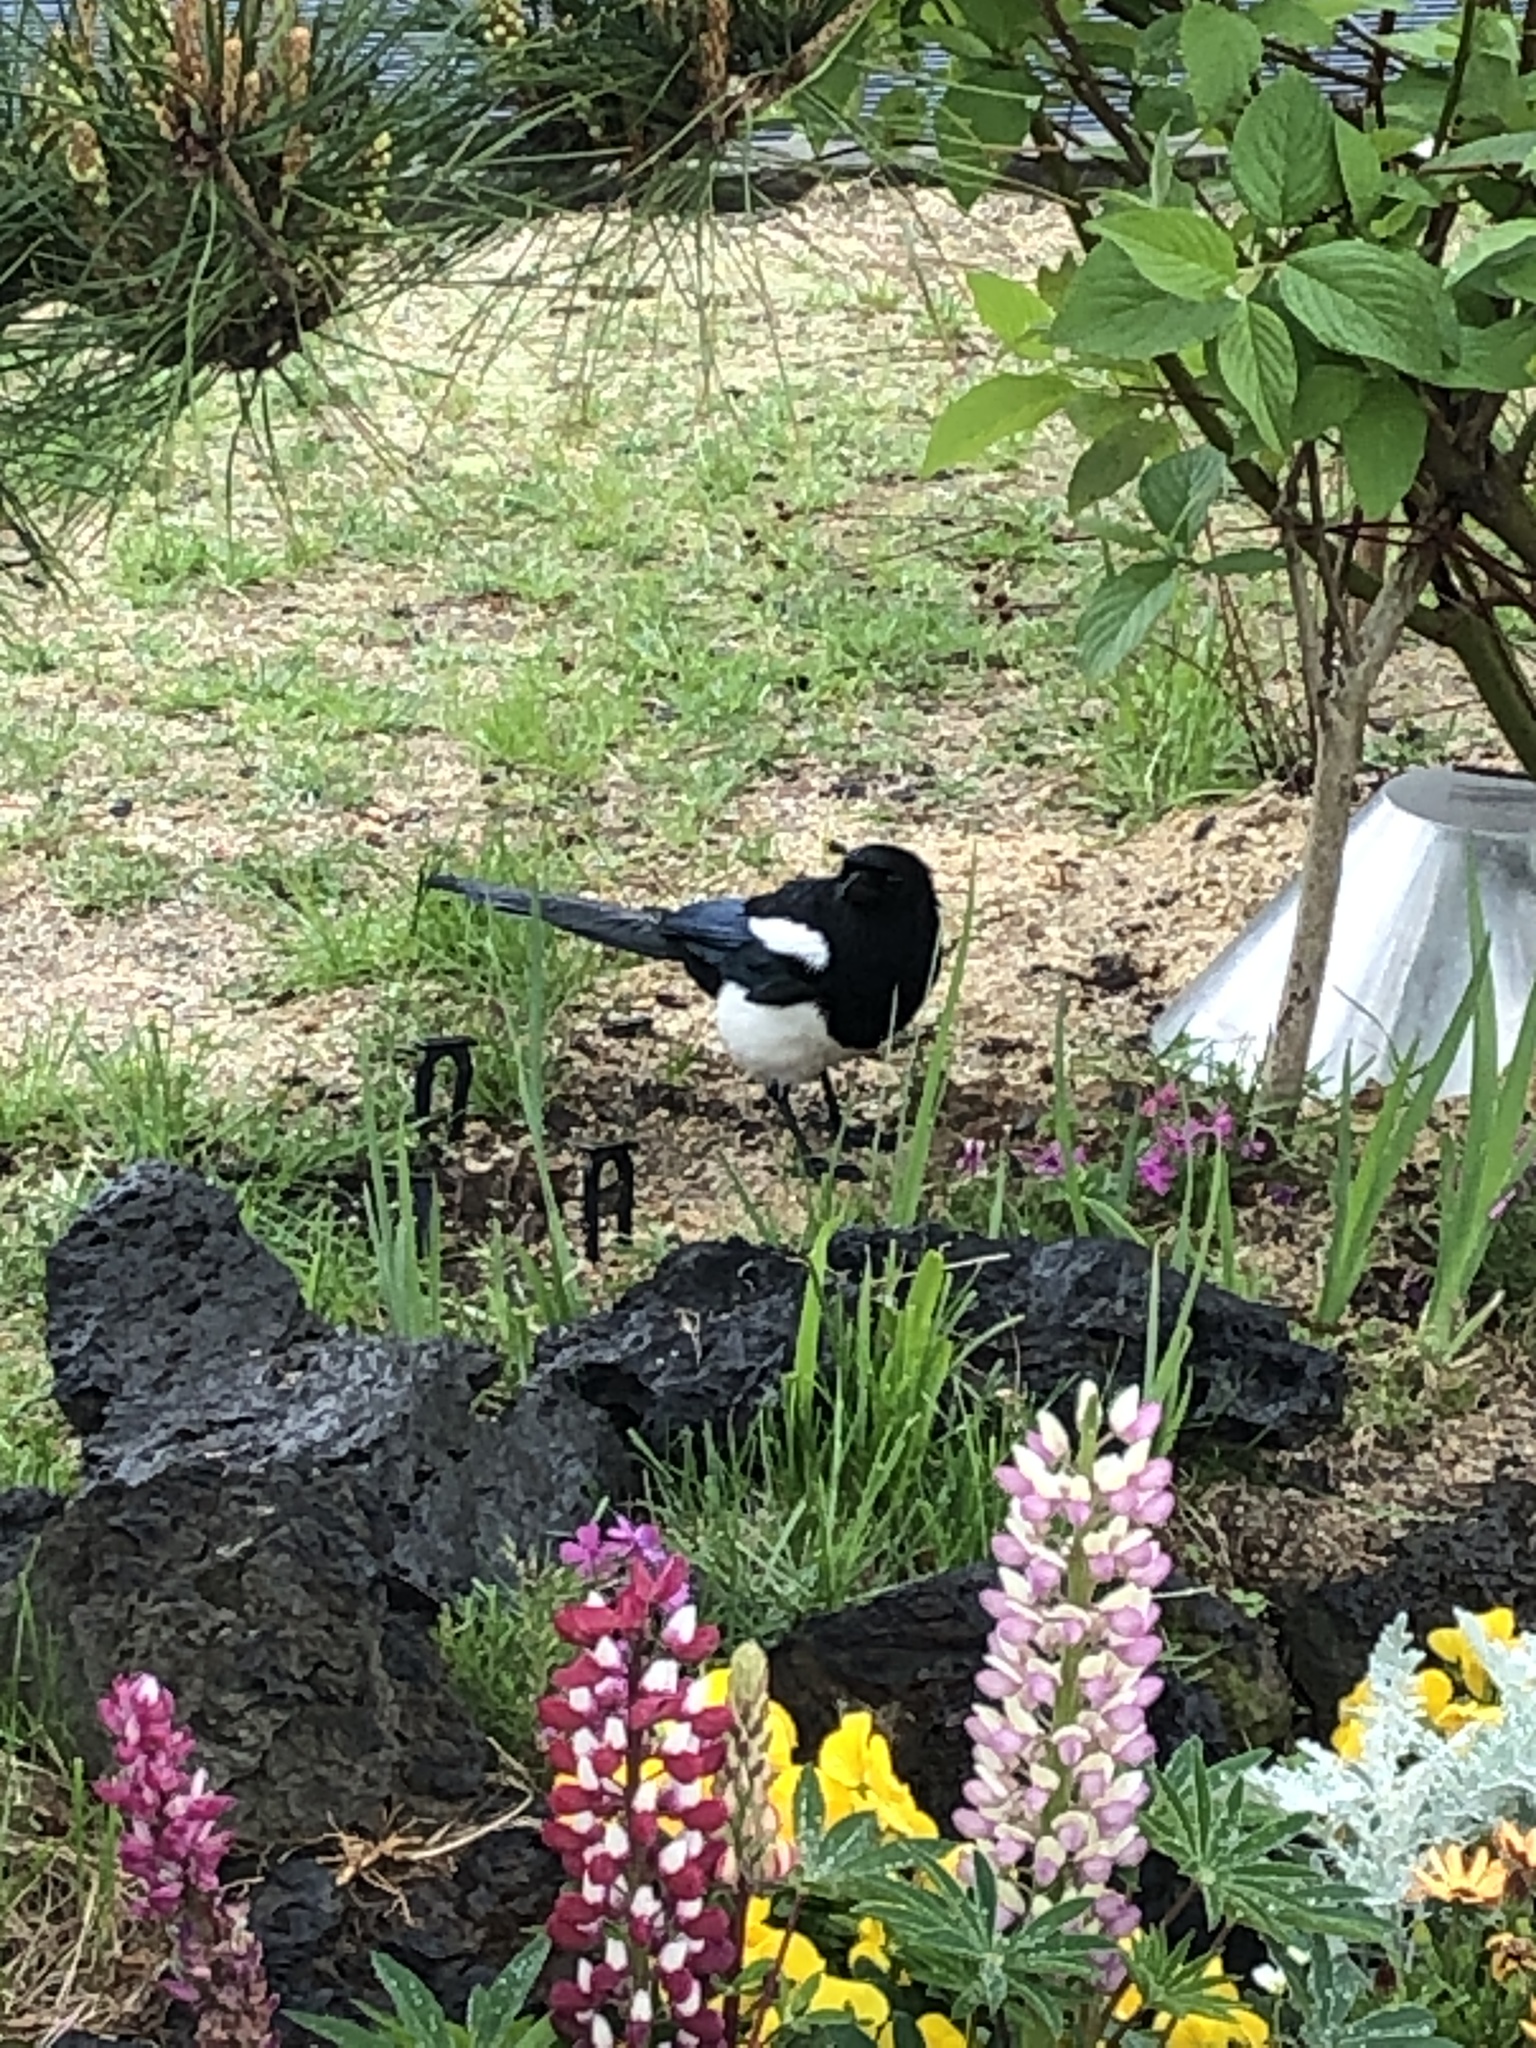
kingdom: Animalia
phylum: Chordata
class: Aves
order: Passeriformes
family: Corvidae
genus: Pica
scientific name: Pica serica
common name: Oriental magpie
